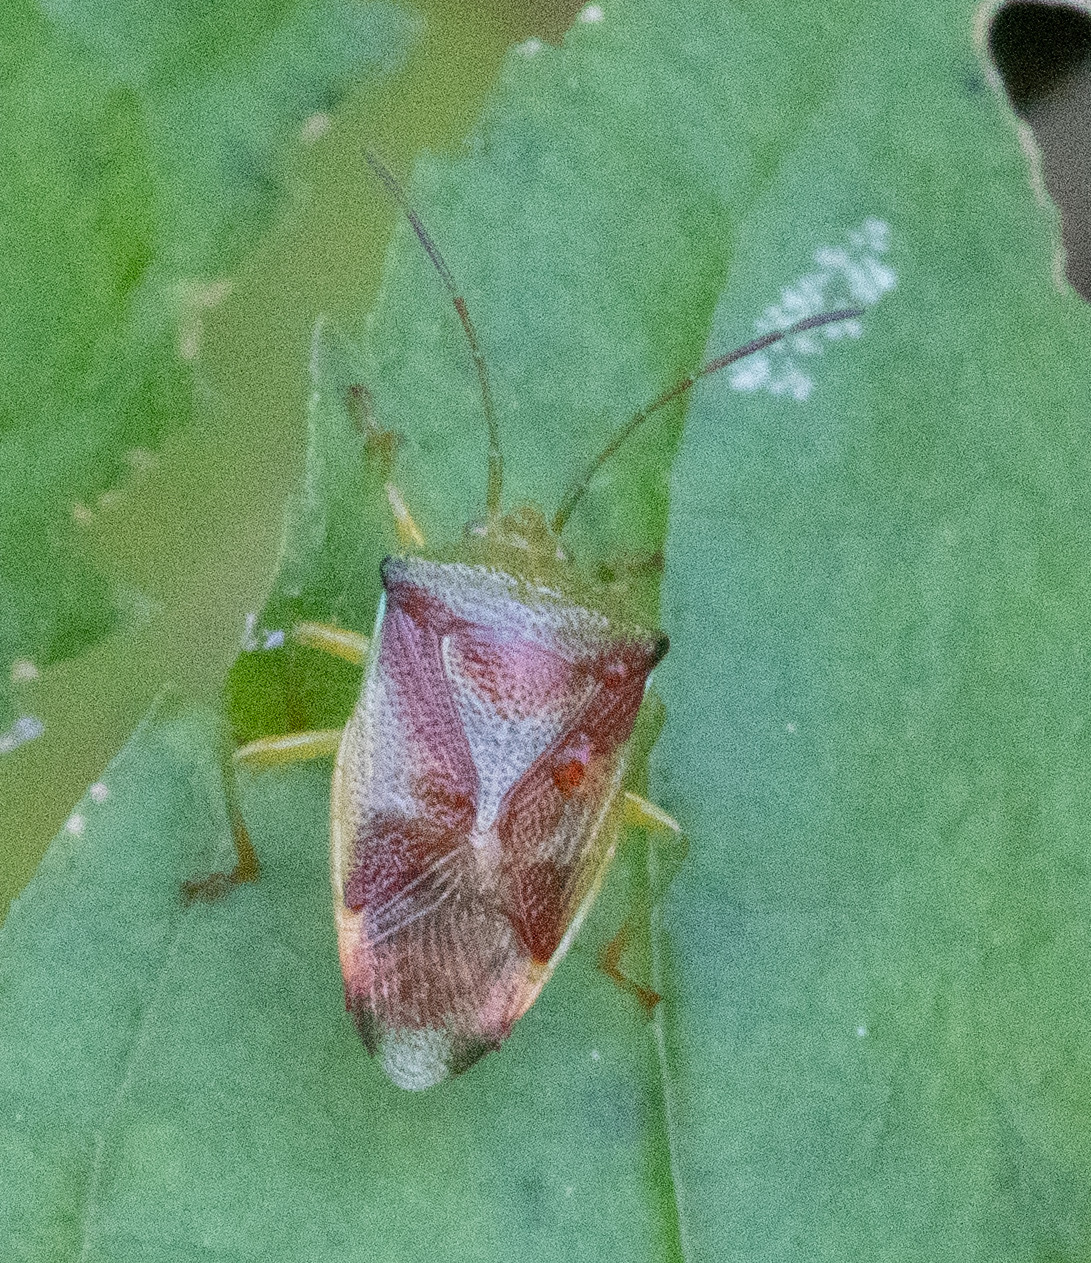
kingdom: Animalia
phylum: Arthropoda
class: Insecta
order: Hemiptera
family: Acanthosomatidae
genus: Elasmostethus
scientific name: Elasmostethus
